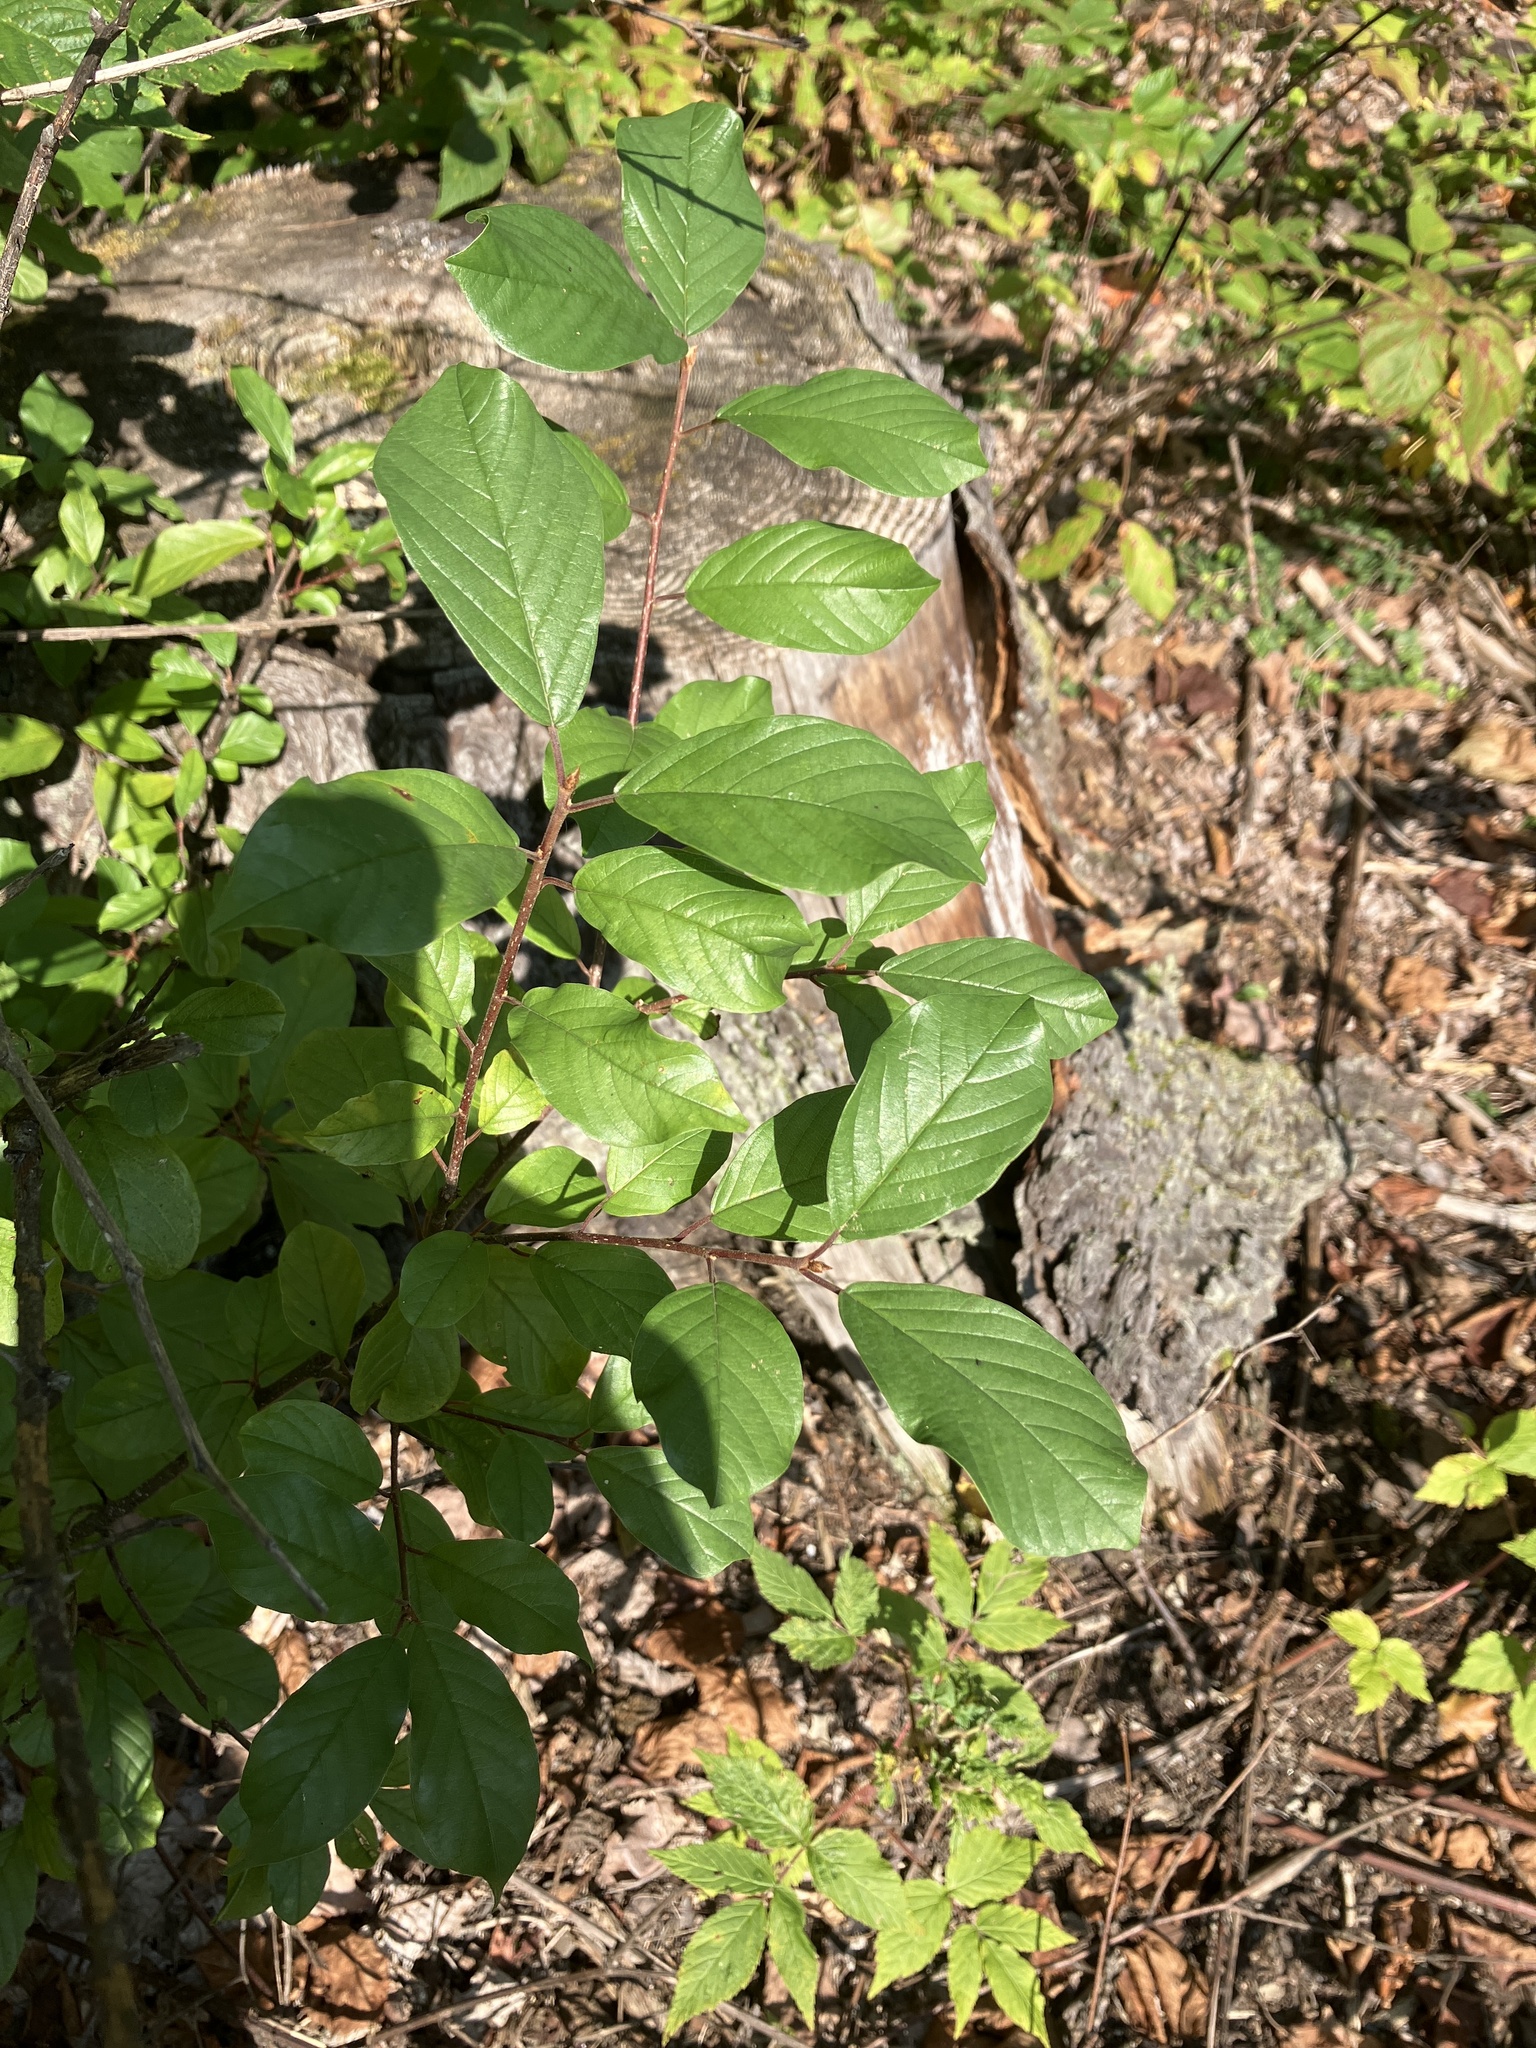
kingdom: Plantae
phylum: Tracheophyta
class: Magnoliopsida
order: Rosales
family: Rhamnaceae
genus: Frangula
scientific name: Frangula alnus
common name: Alder buckthorn
